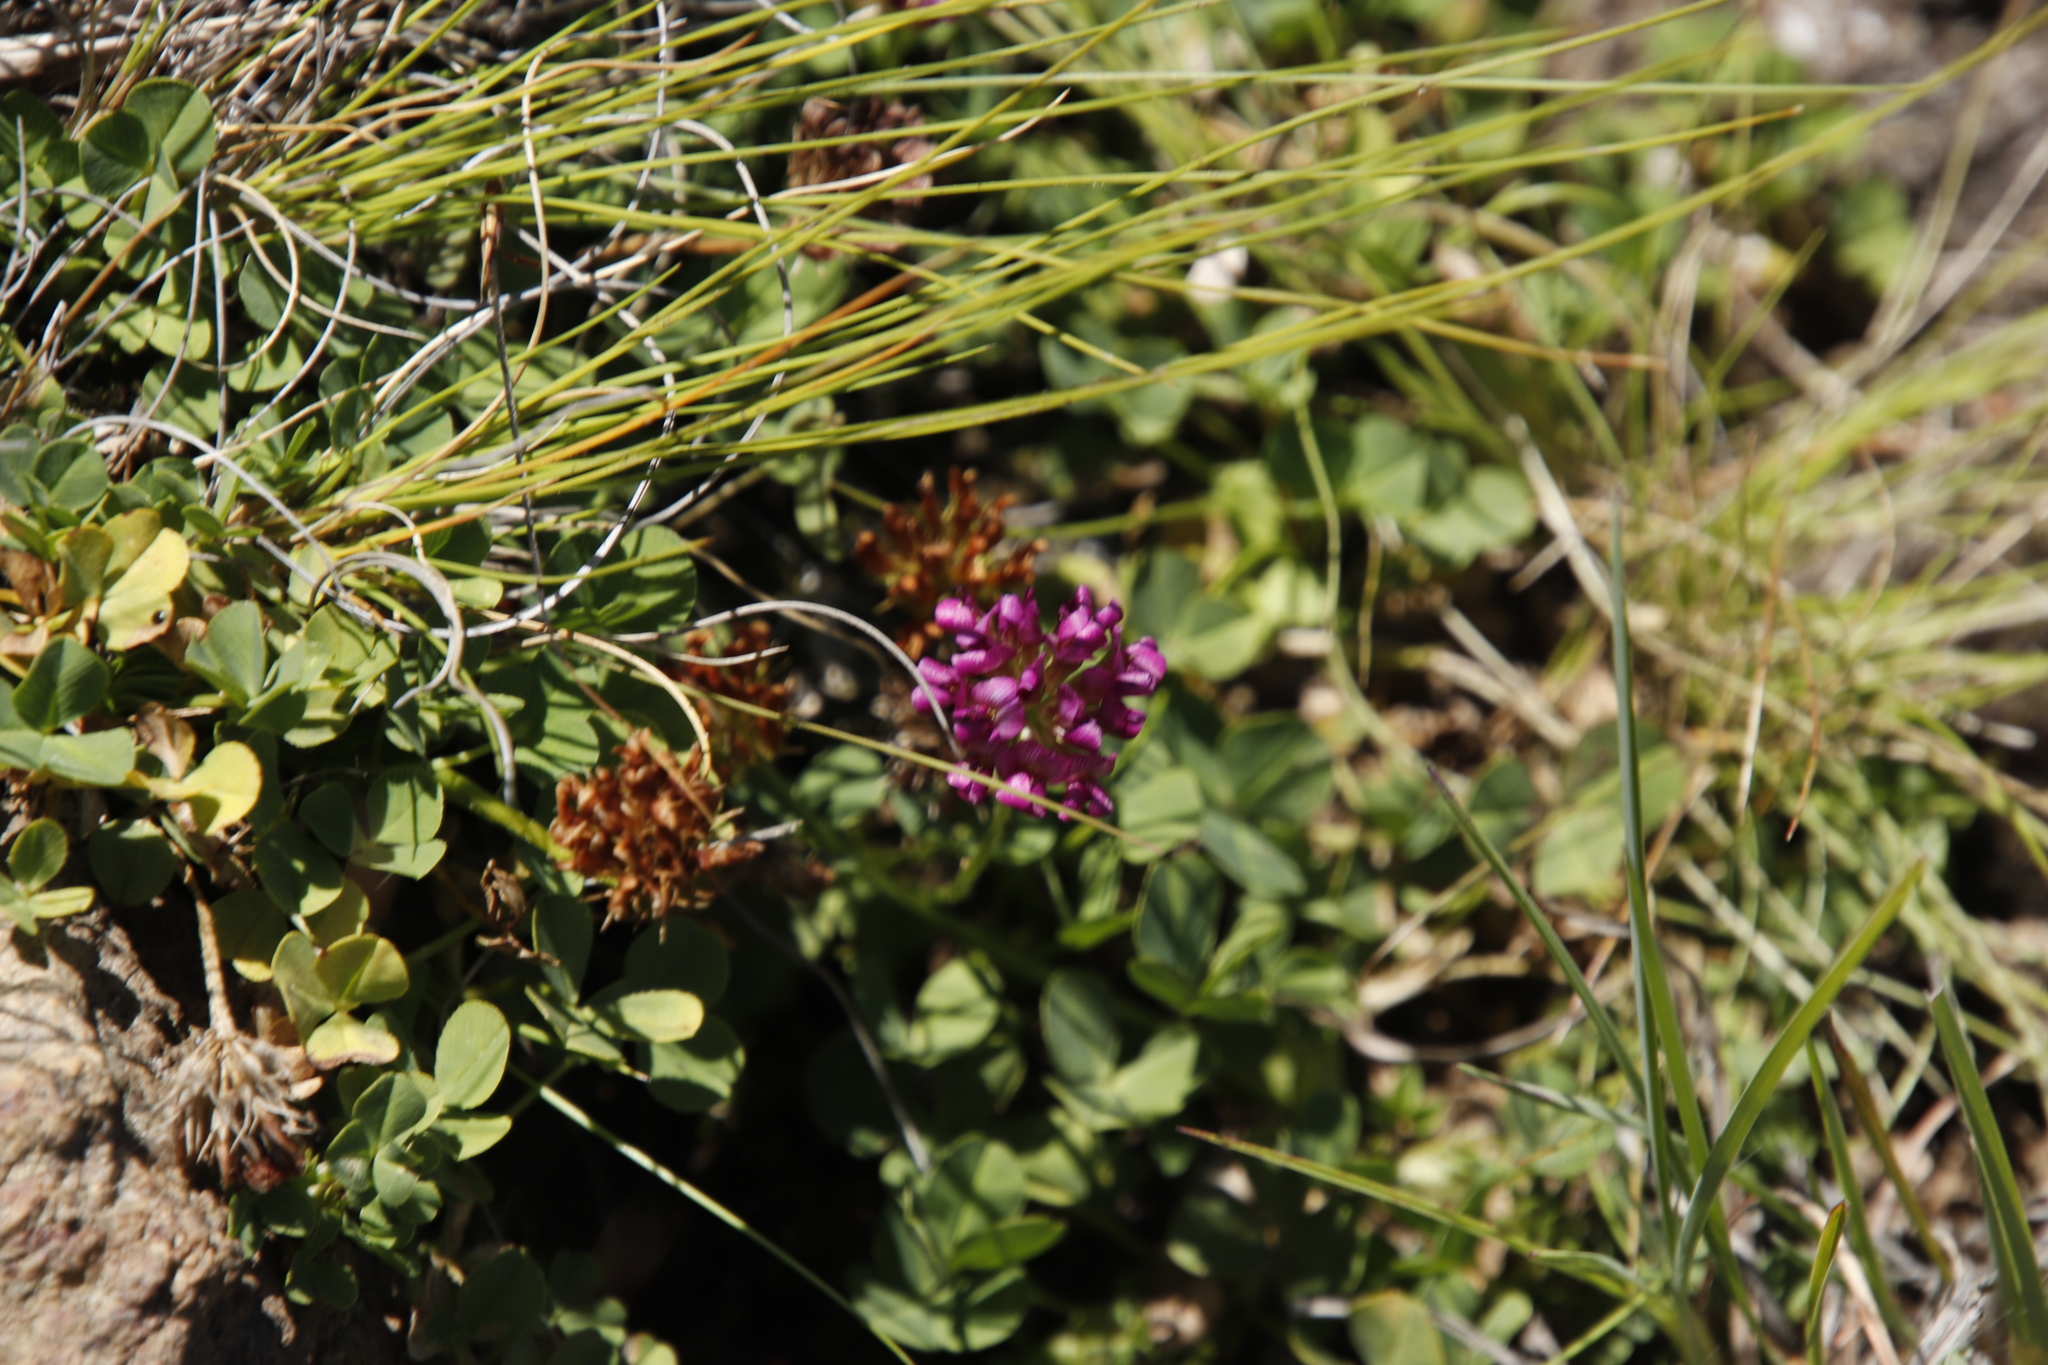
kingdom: Plantae
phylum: Tracheophyta
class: Magnoliopsida
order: Fabales
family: Fabaceae
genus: Trifolium
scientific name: Trifolium burchellianum
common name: Burchell's clover
